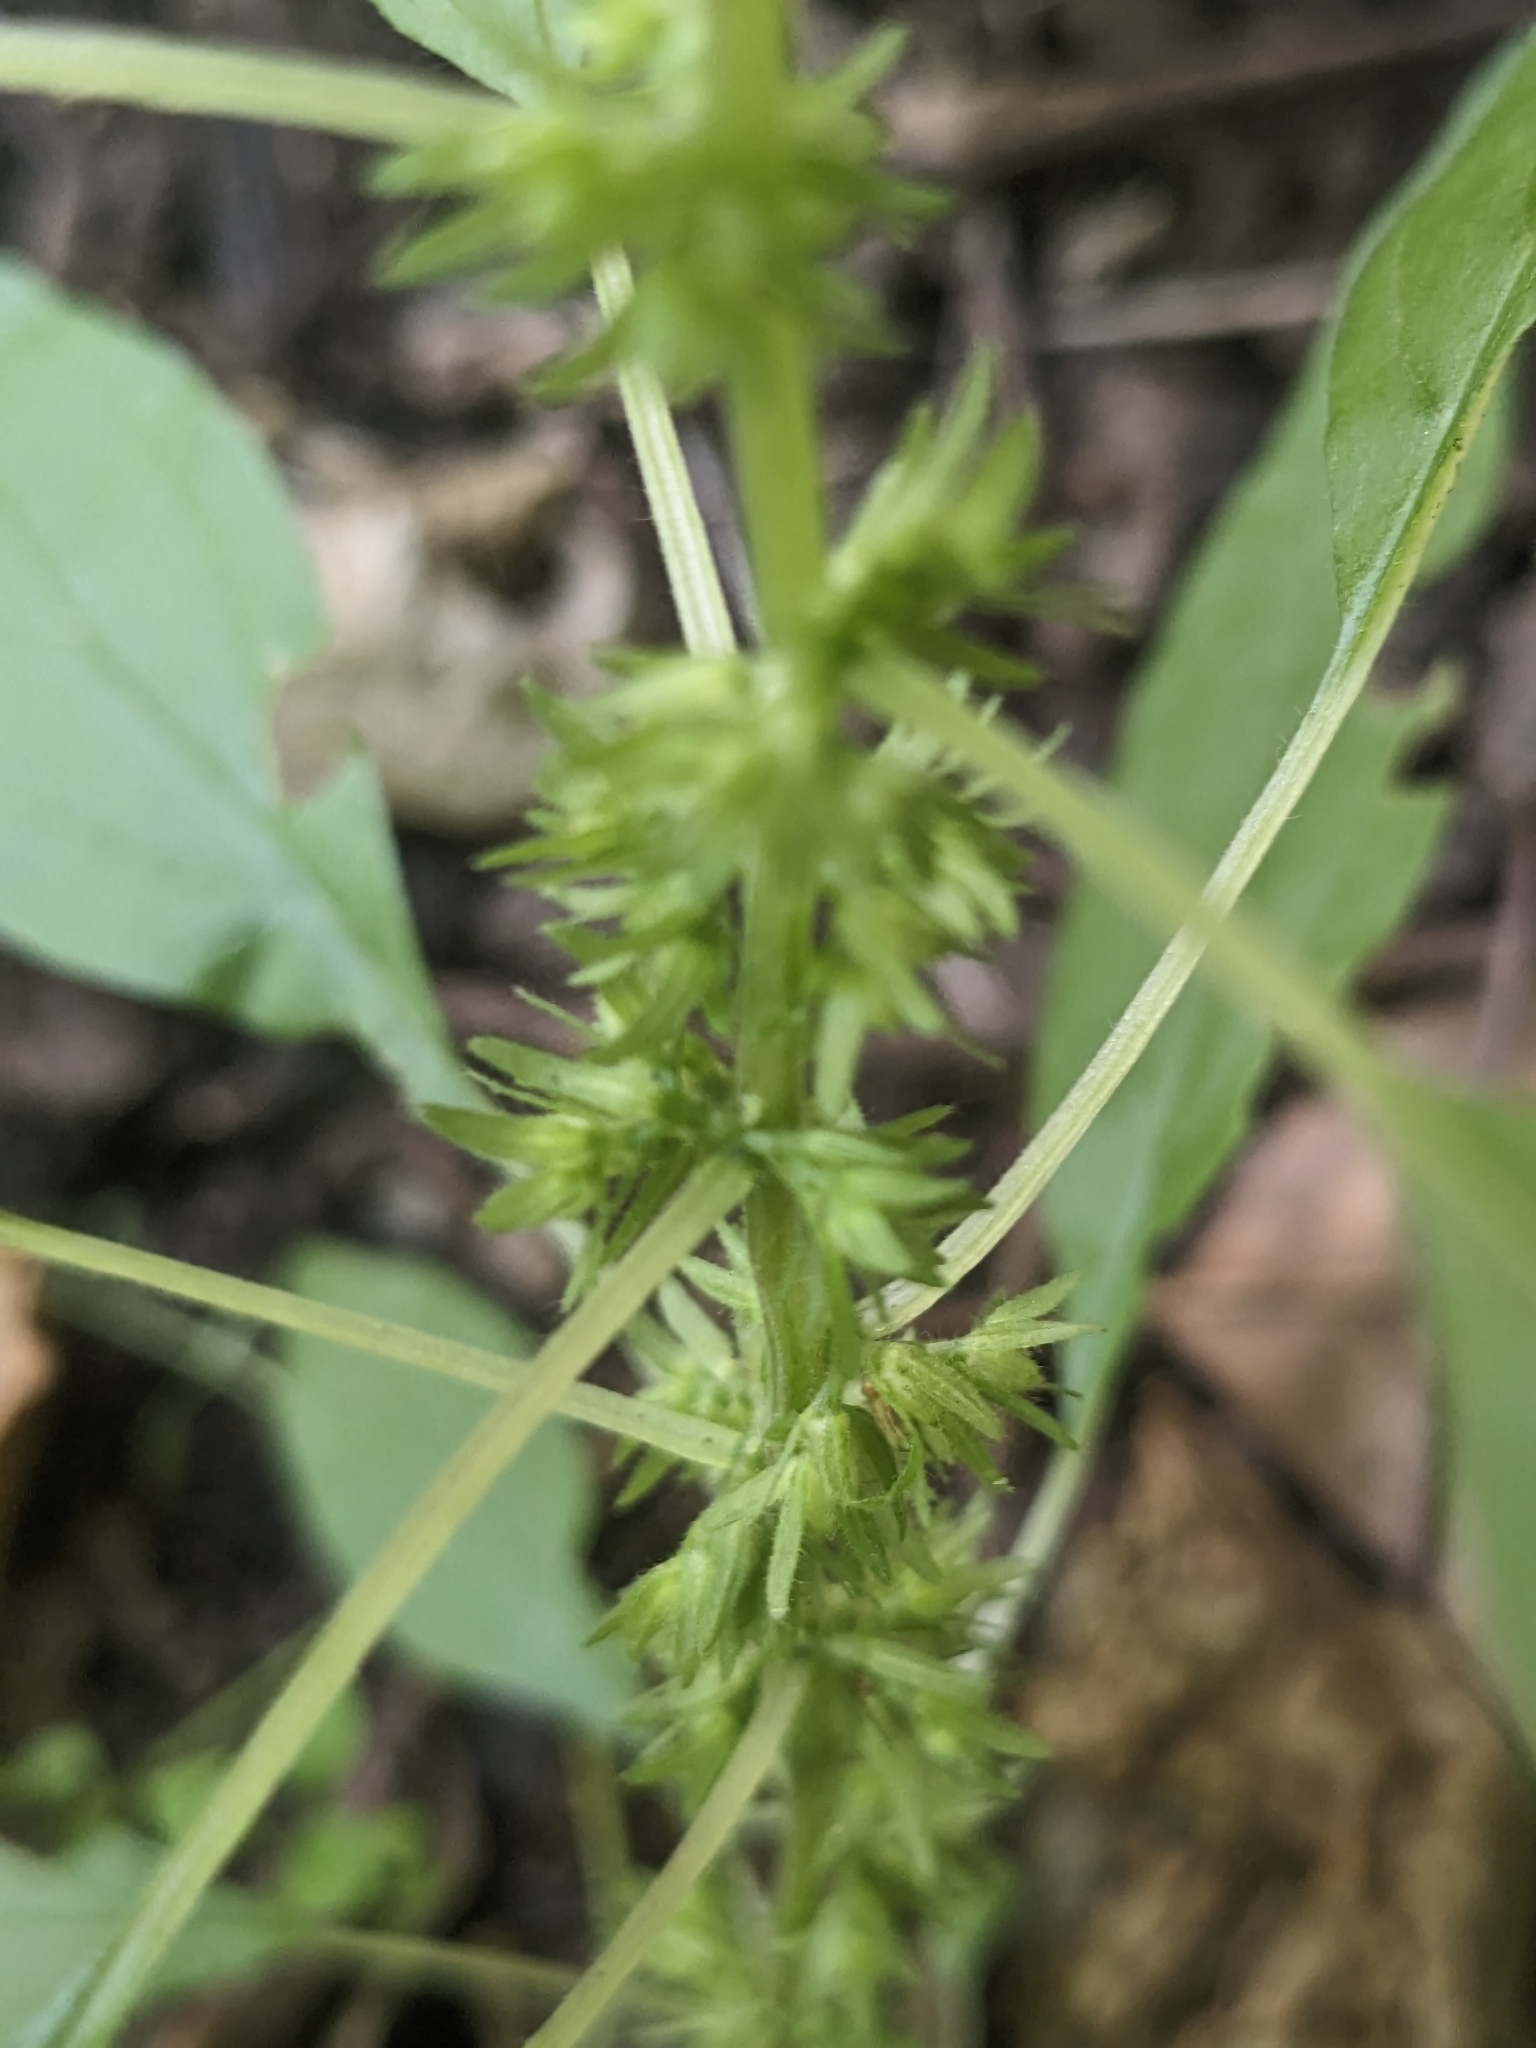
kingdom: Plantae
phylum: Tracheophyta
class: Magnoliopsida
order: Rosales
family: Urticaceae
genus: Parietaria
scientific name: Parietaria pensylvanica
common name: Pennsylvania pellitory
